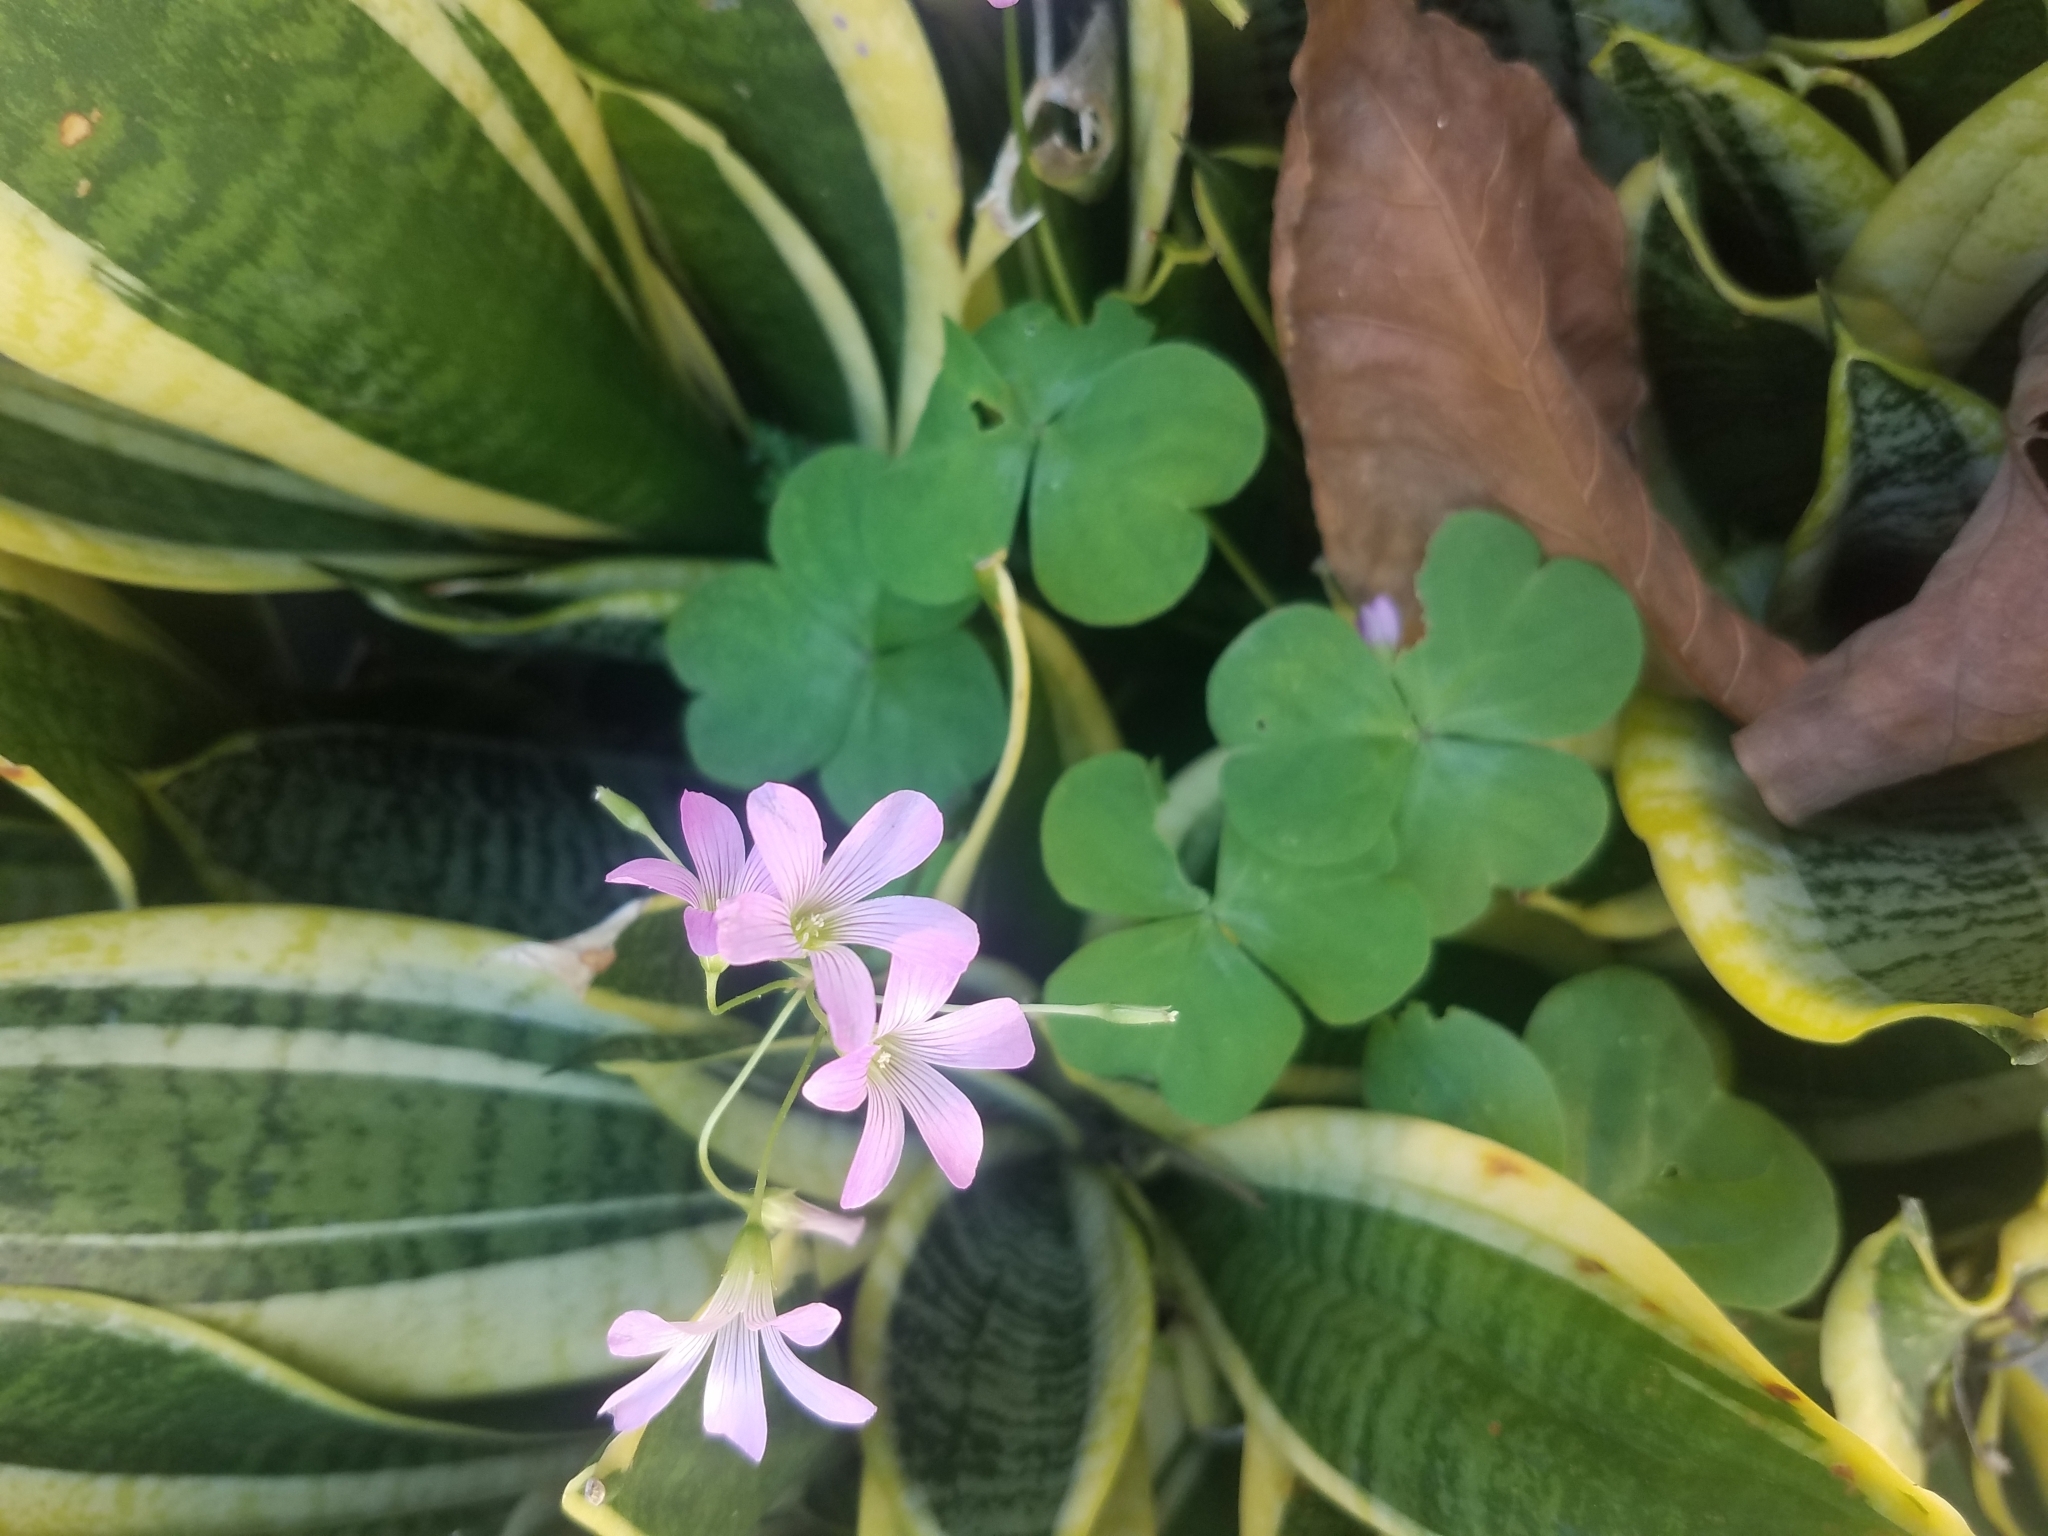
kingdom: Plantae
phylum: Tracheophyta
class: Magnoliopsida
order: Oxalidales
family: Oxalidaceae
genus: Oxalis
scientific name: Oxalis debilis
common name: Large-flowered pink-sorrel
